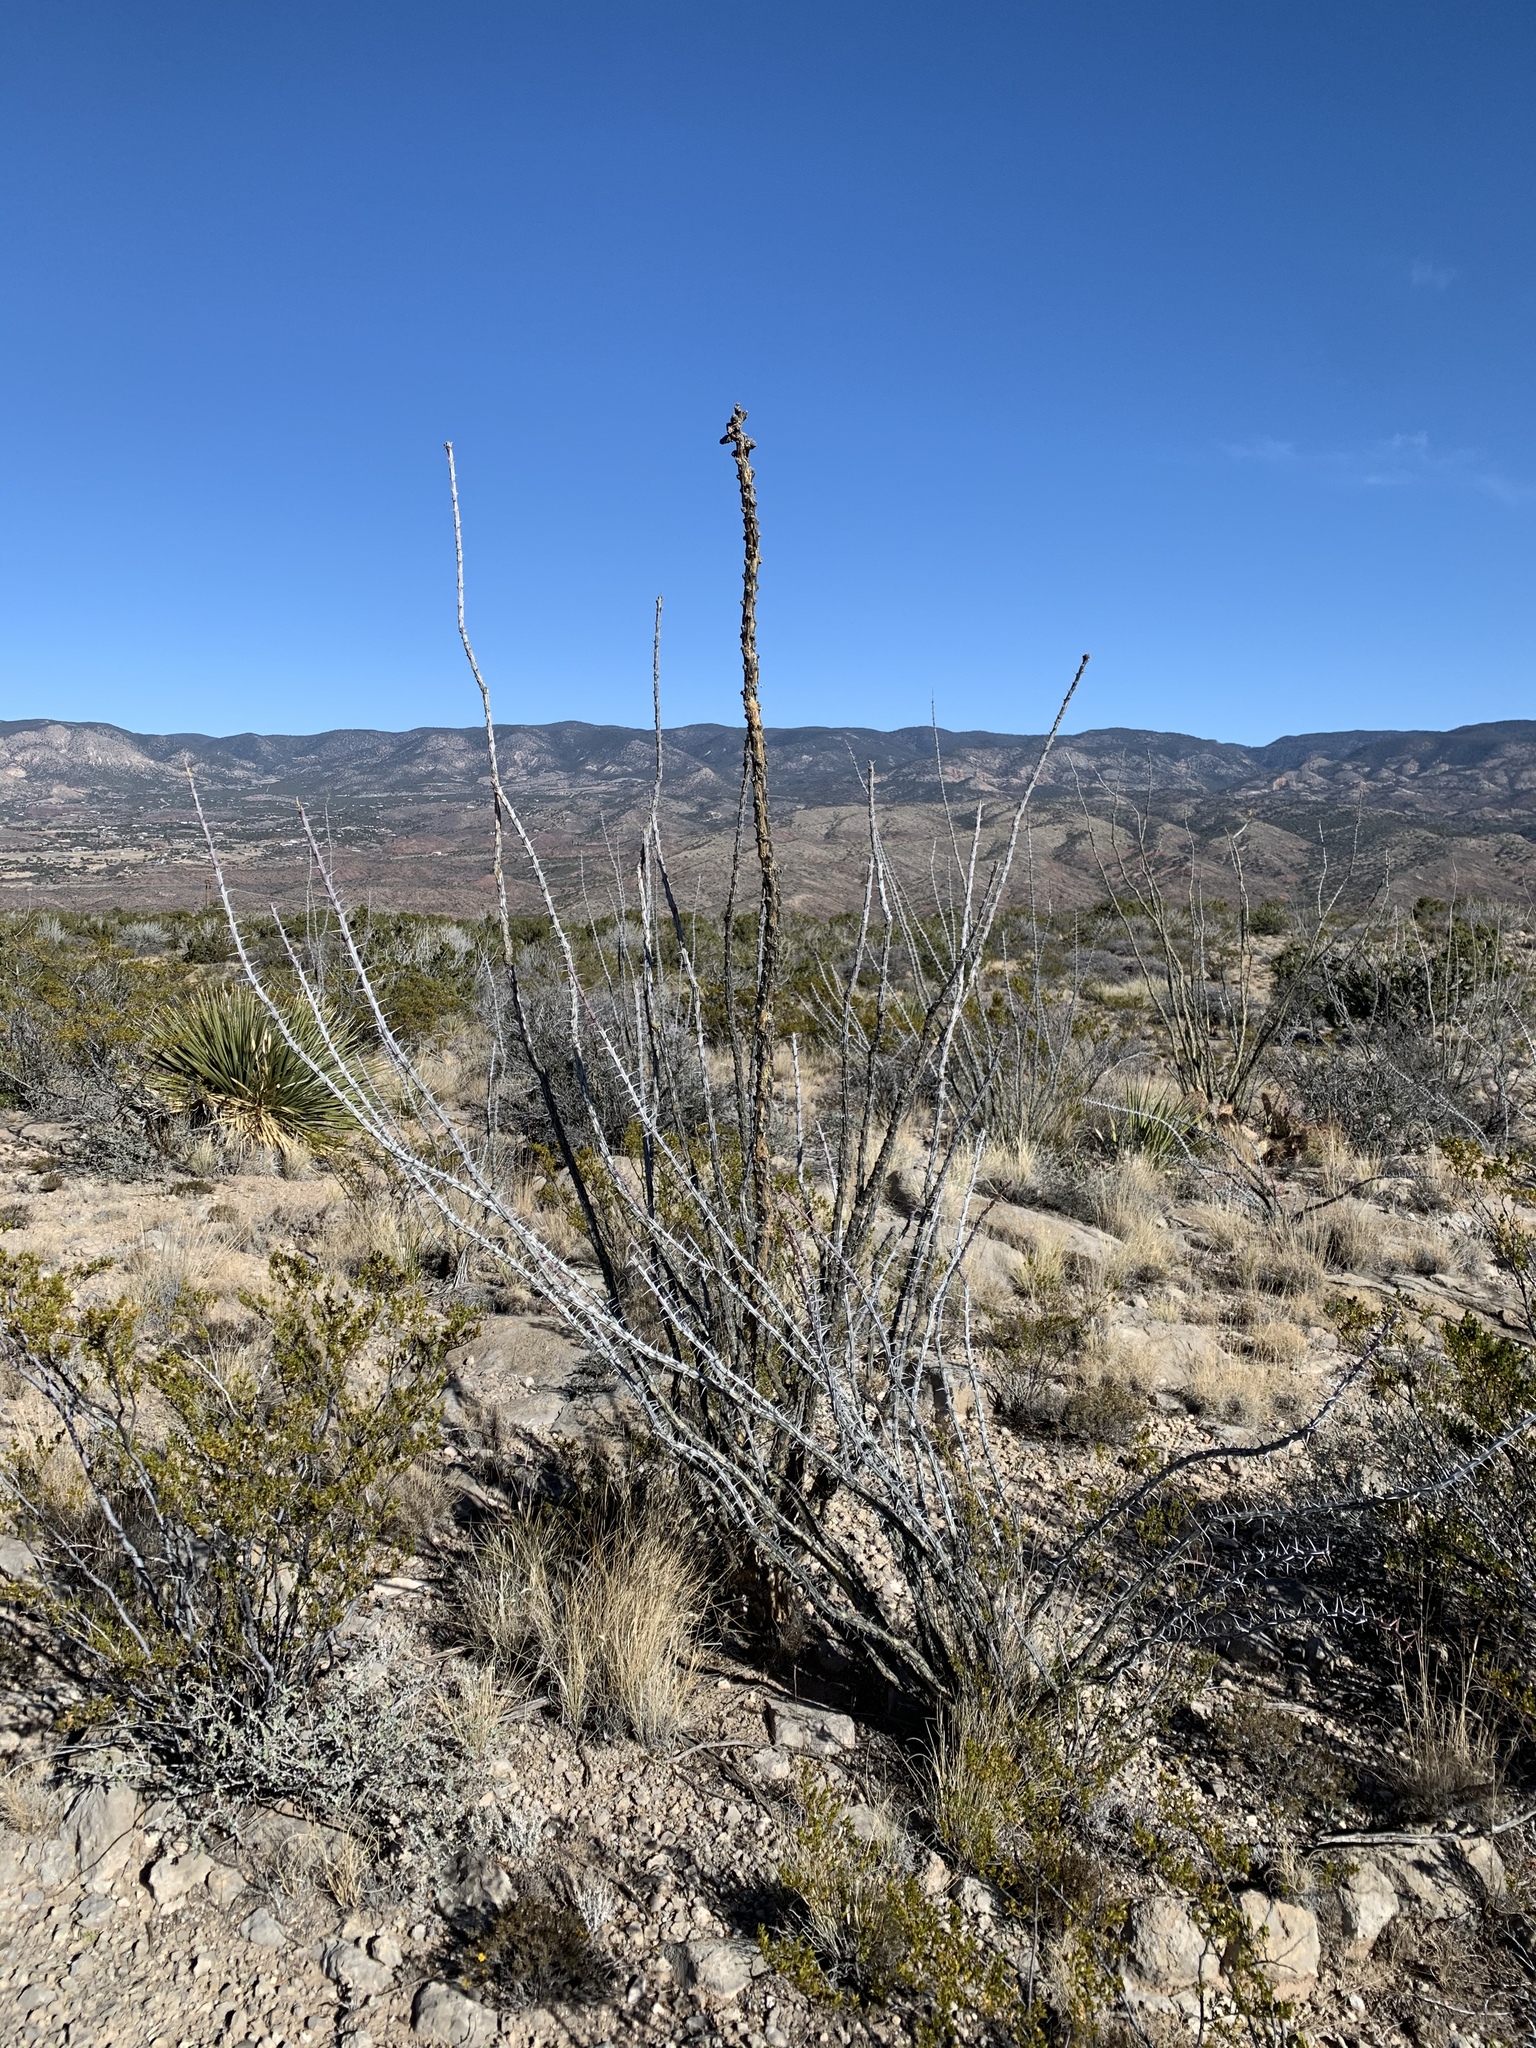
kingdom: Plantae
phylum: Tracheophyta
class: Magnoliopsida
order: Ericales
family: Fouquieriaceae
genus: Fouquieria
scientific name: Fouquieria splendens
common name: Vine-cactus
